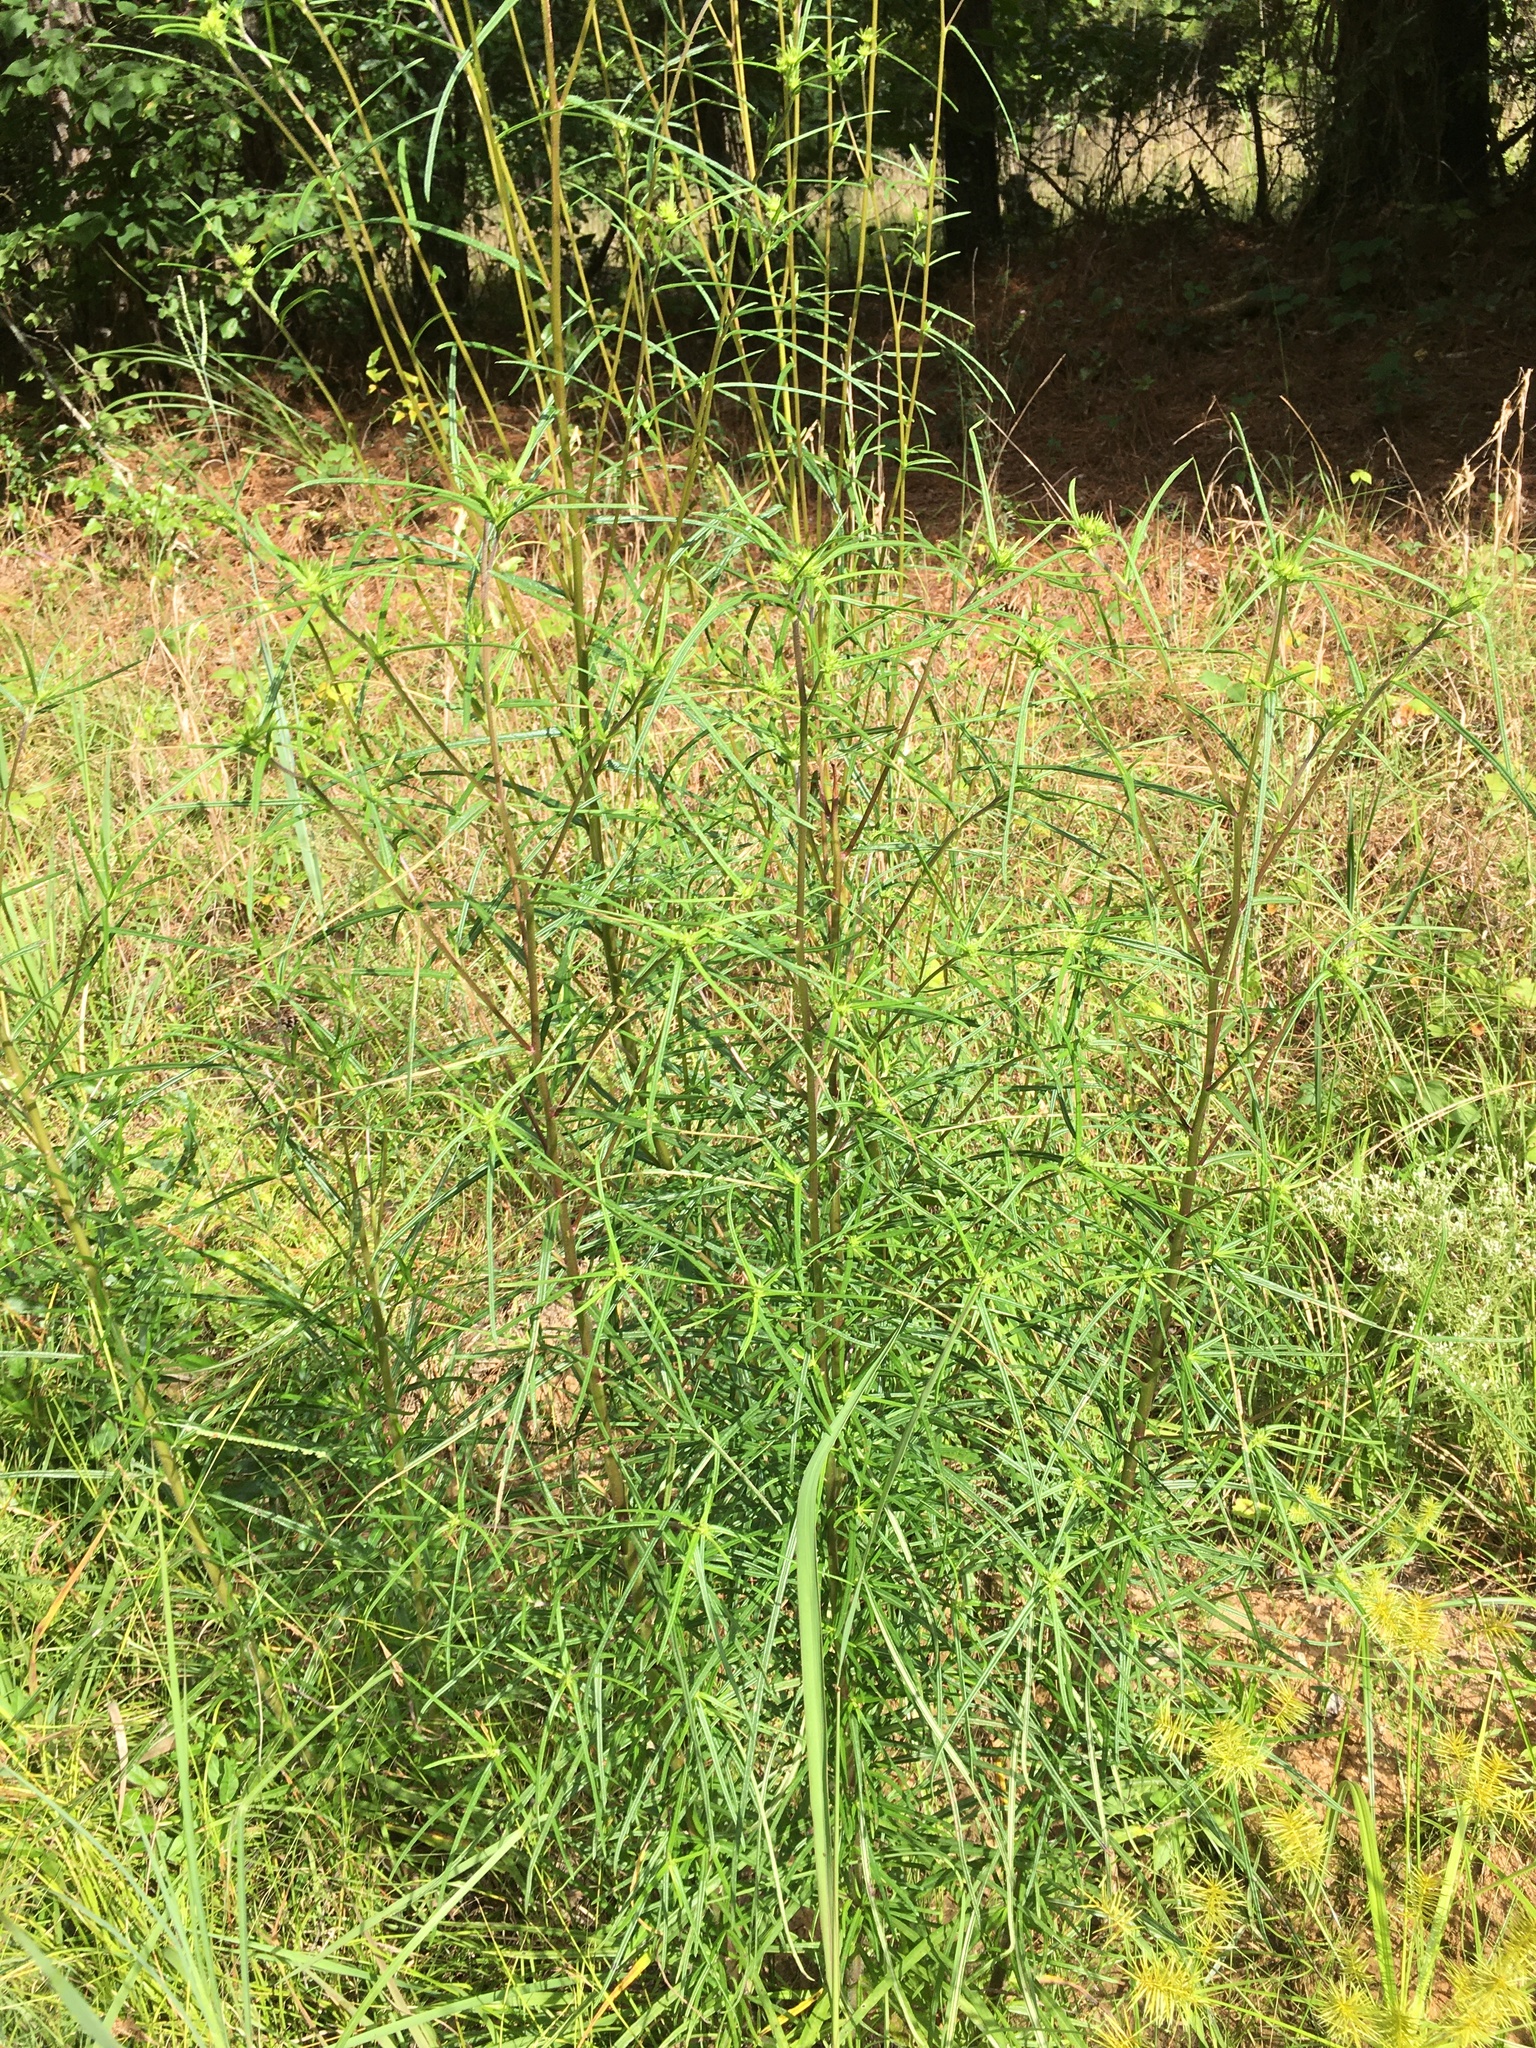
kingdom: Plantae
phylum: Tracheophyta
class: Magnoliopsida
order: Asterales
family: Asteraceae
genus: Helianthus
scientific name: Helianthus angustifolius
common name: Swamp sunflower
